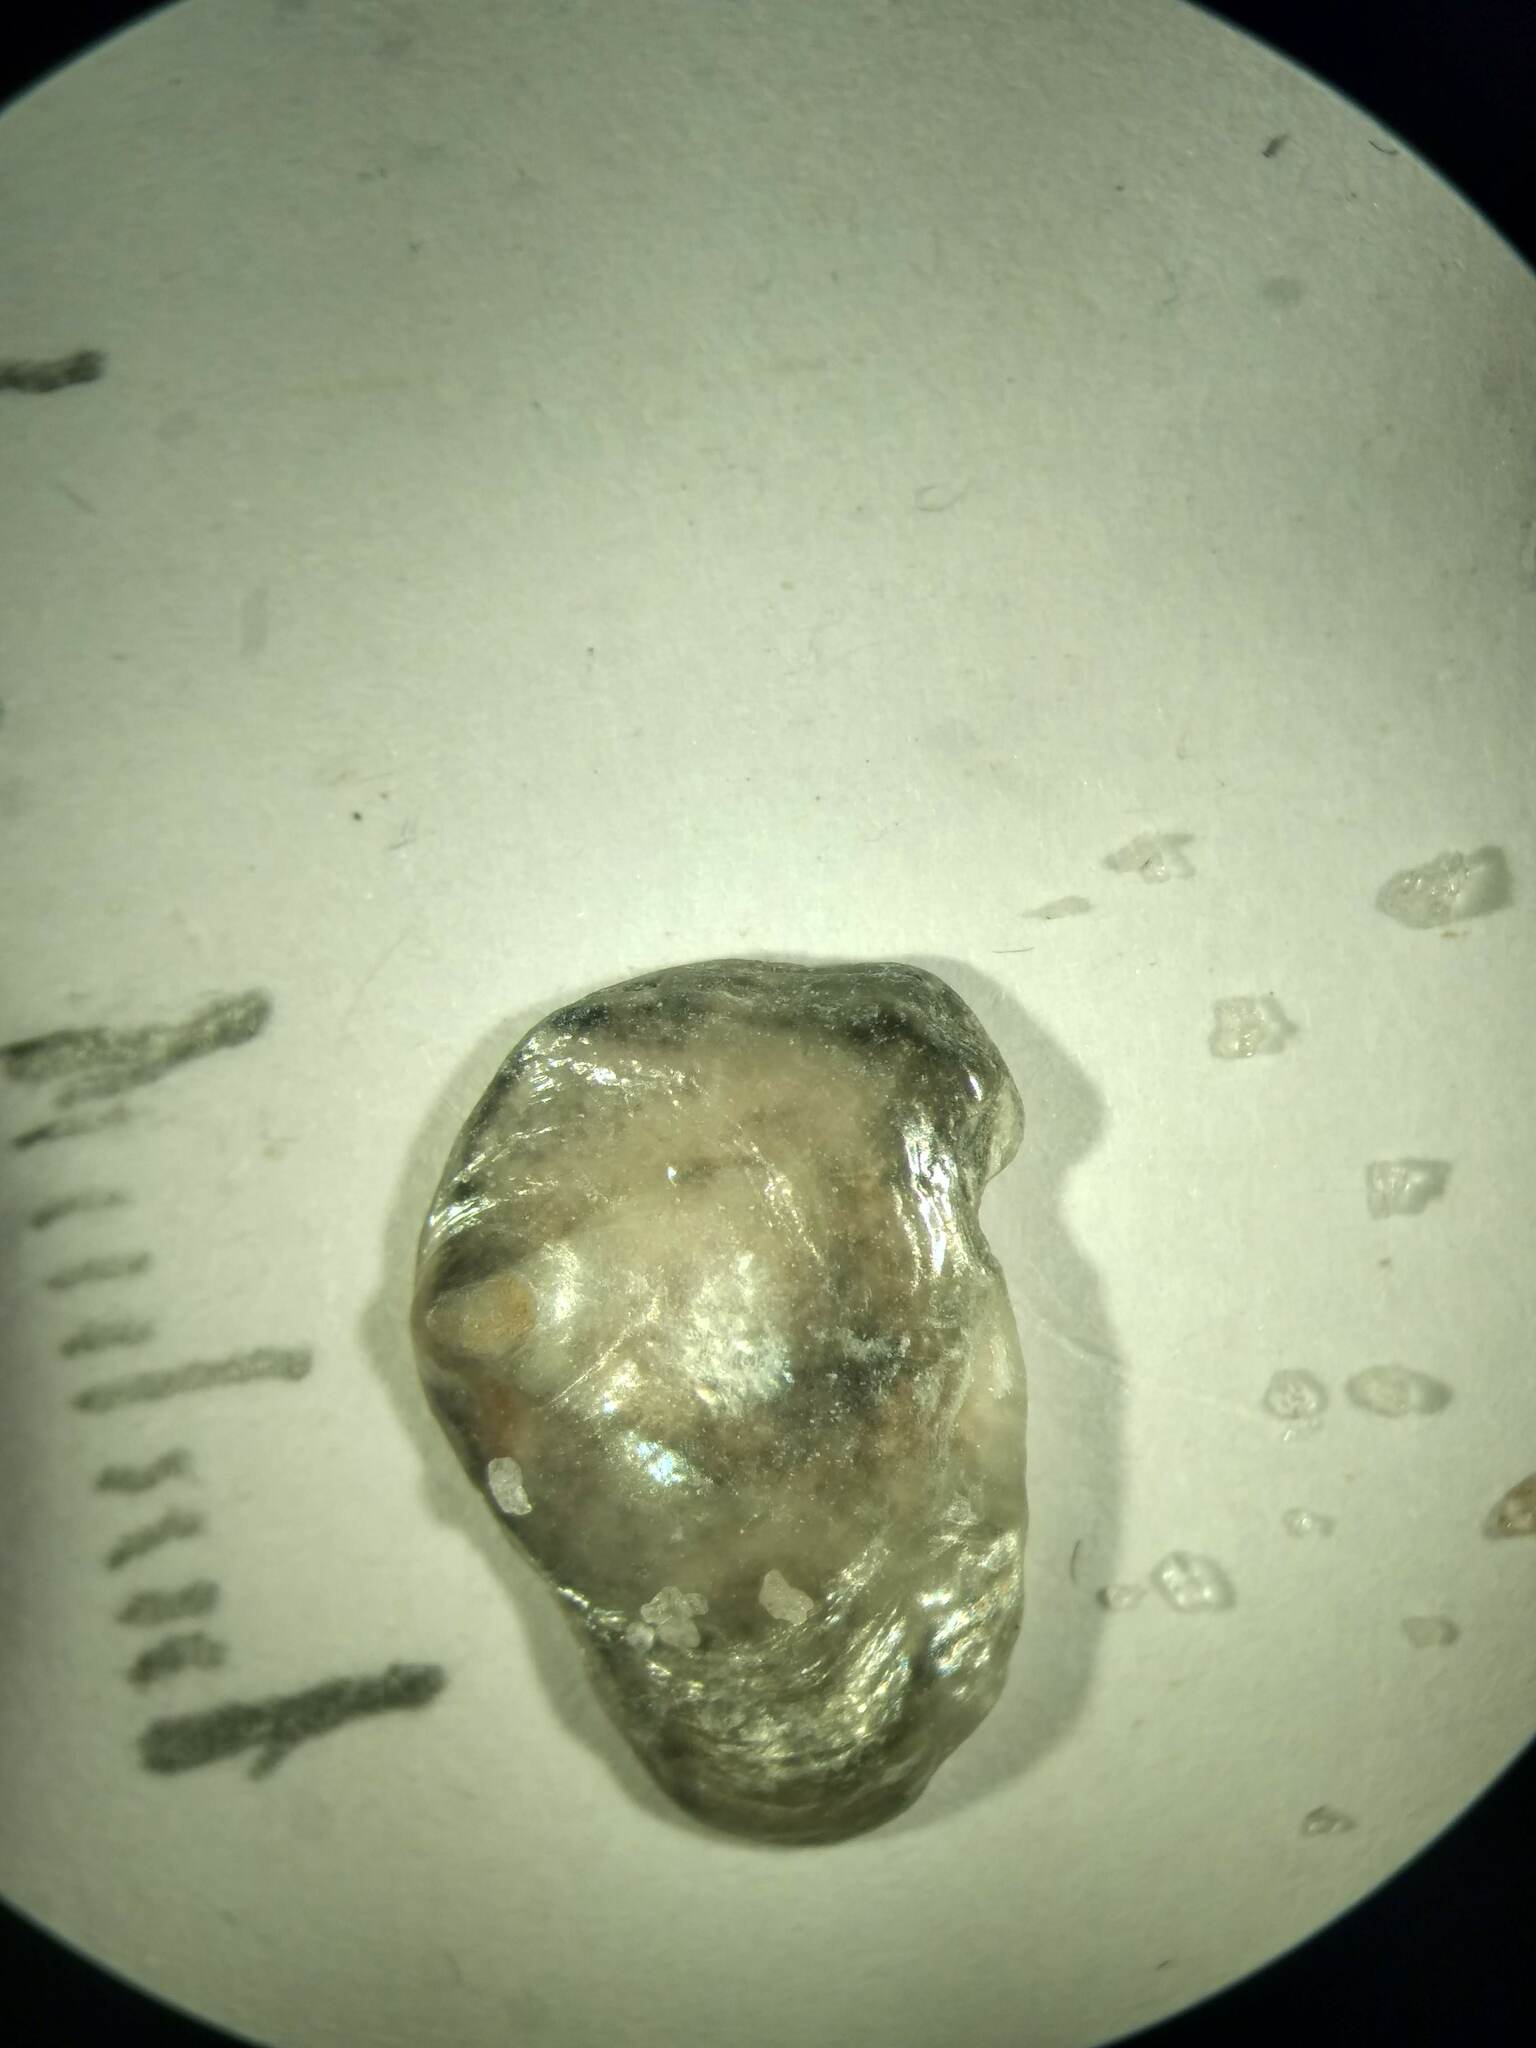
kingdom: Animalia
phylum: Mollusca
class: Bivalvia
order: Pectinida
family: Anomiidae
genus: Anomia
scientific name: Anomia simplex
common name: Common jingle shell
